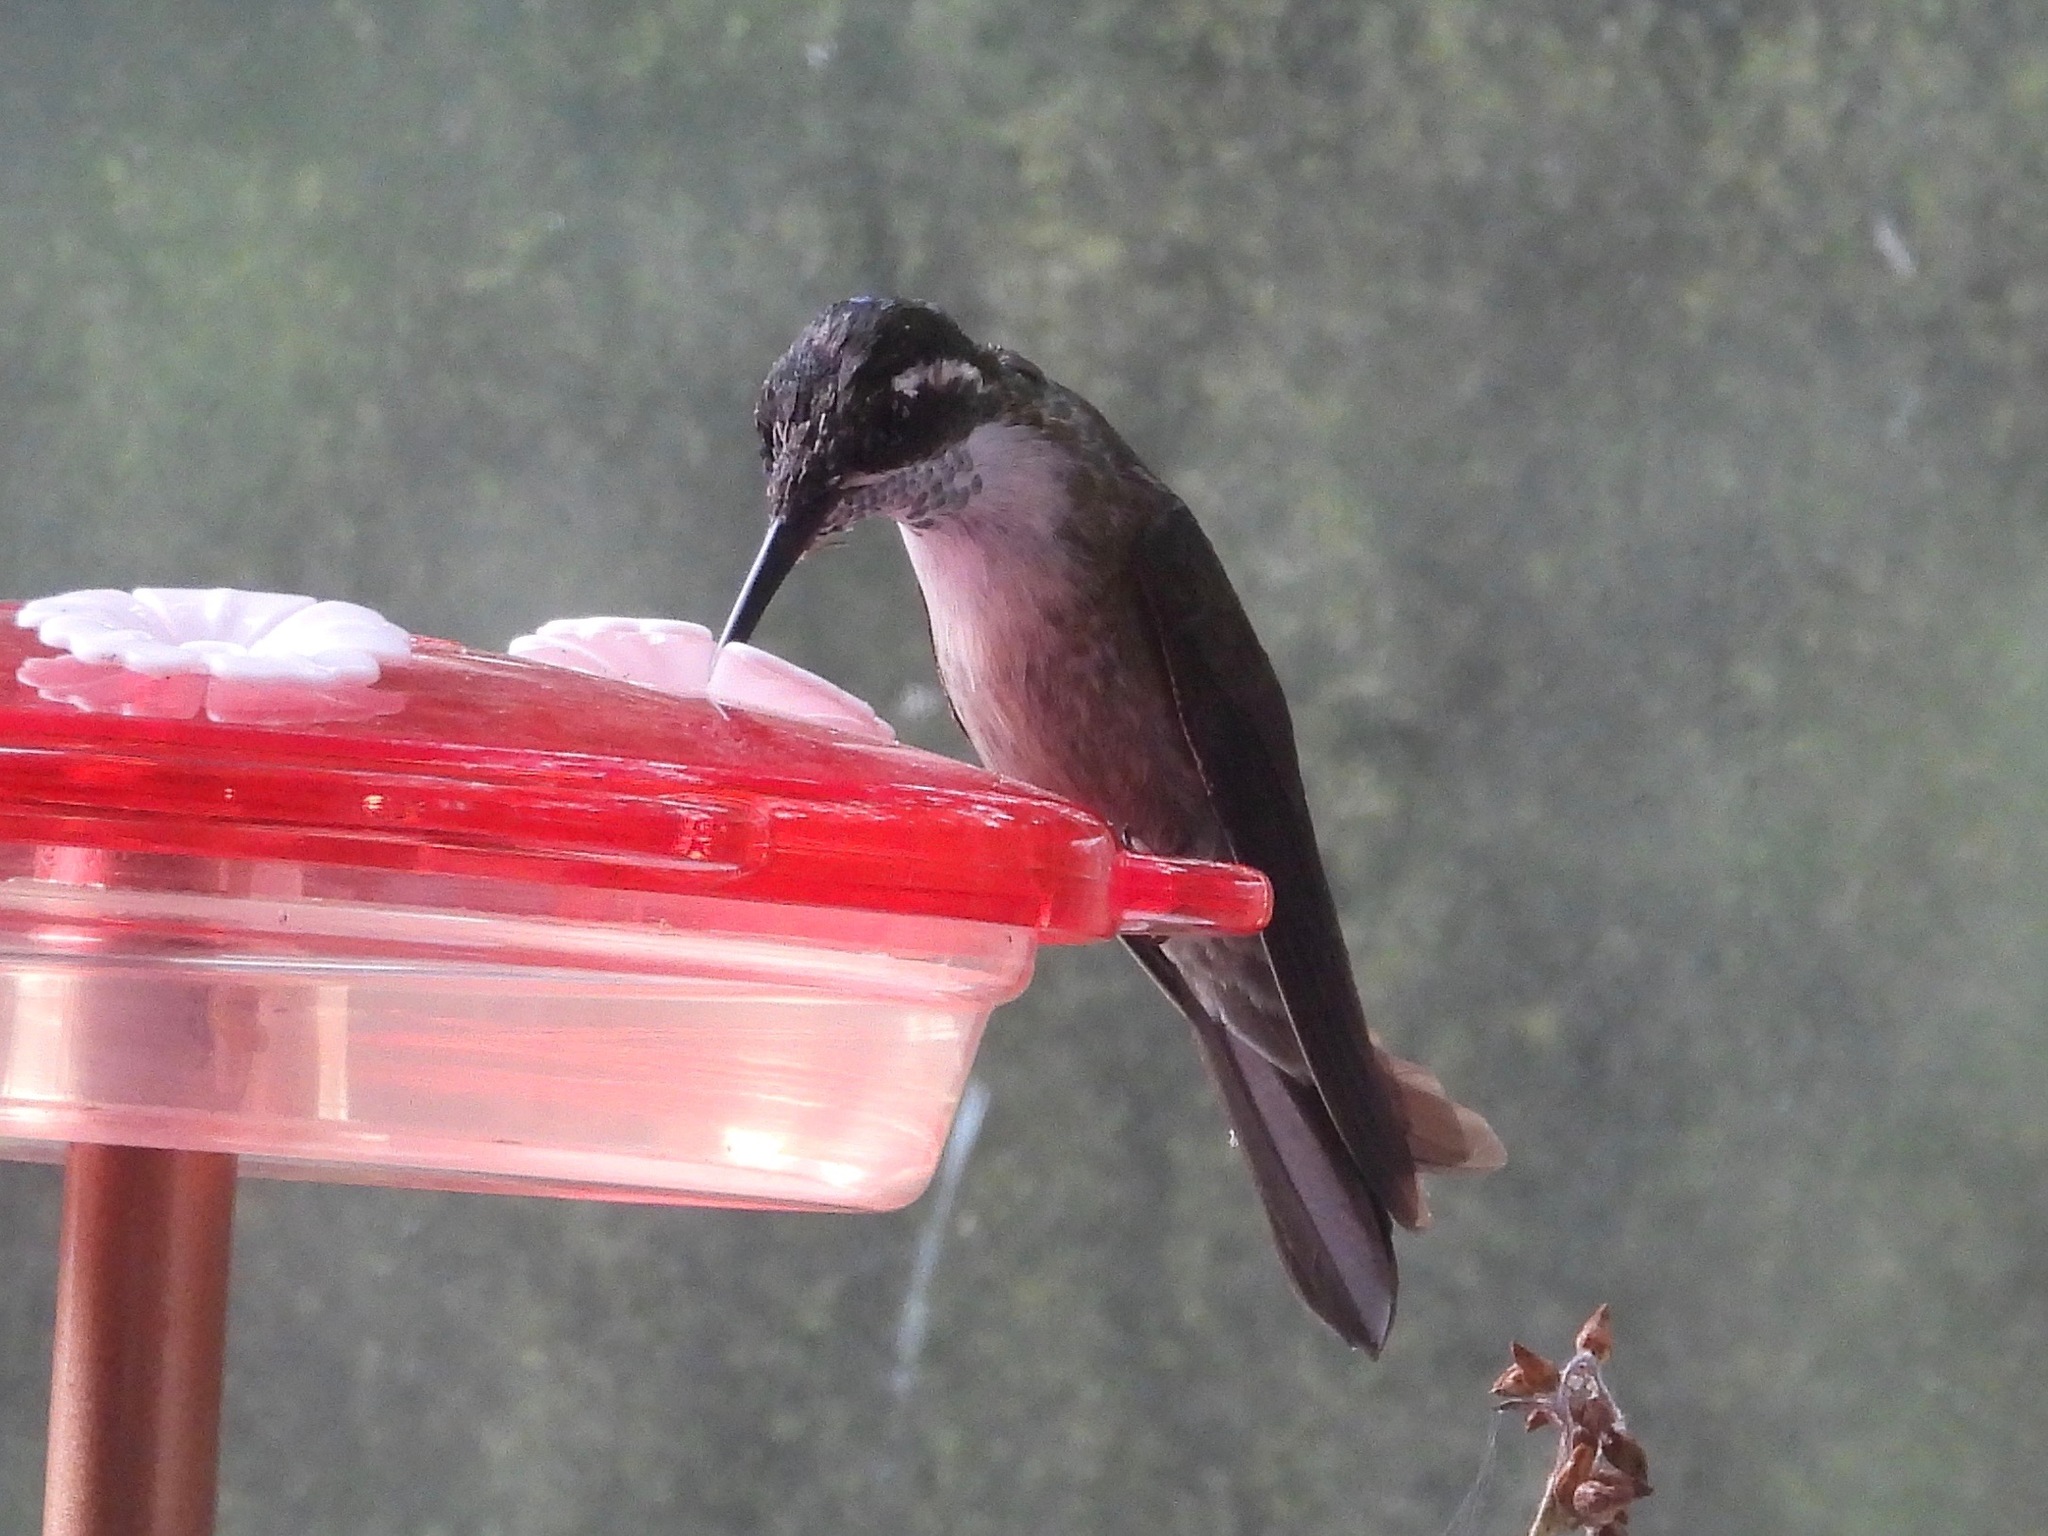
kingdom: Animalia
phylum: Chordata
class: Aves
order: Apodiformes
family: Trochilidae
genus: Lampornis
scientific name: Lampornis viridipallens
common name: Green-throated mountain-gem
